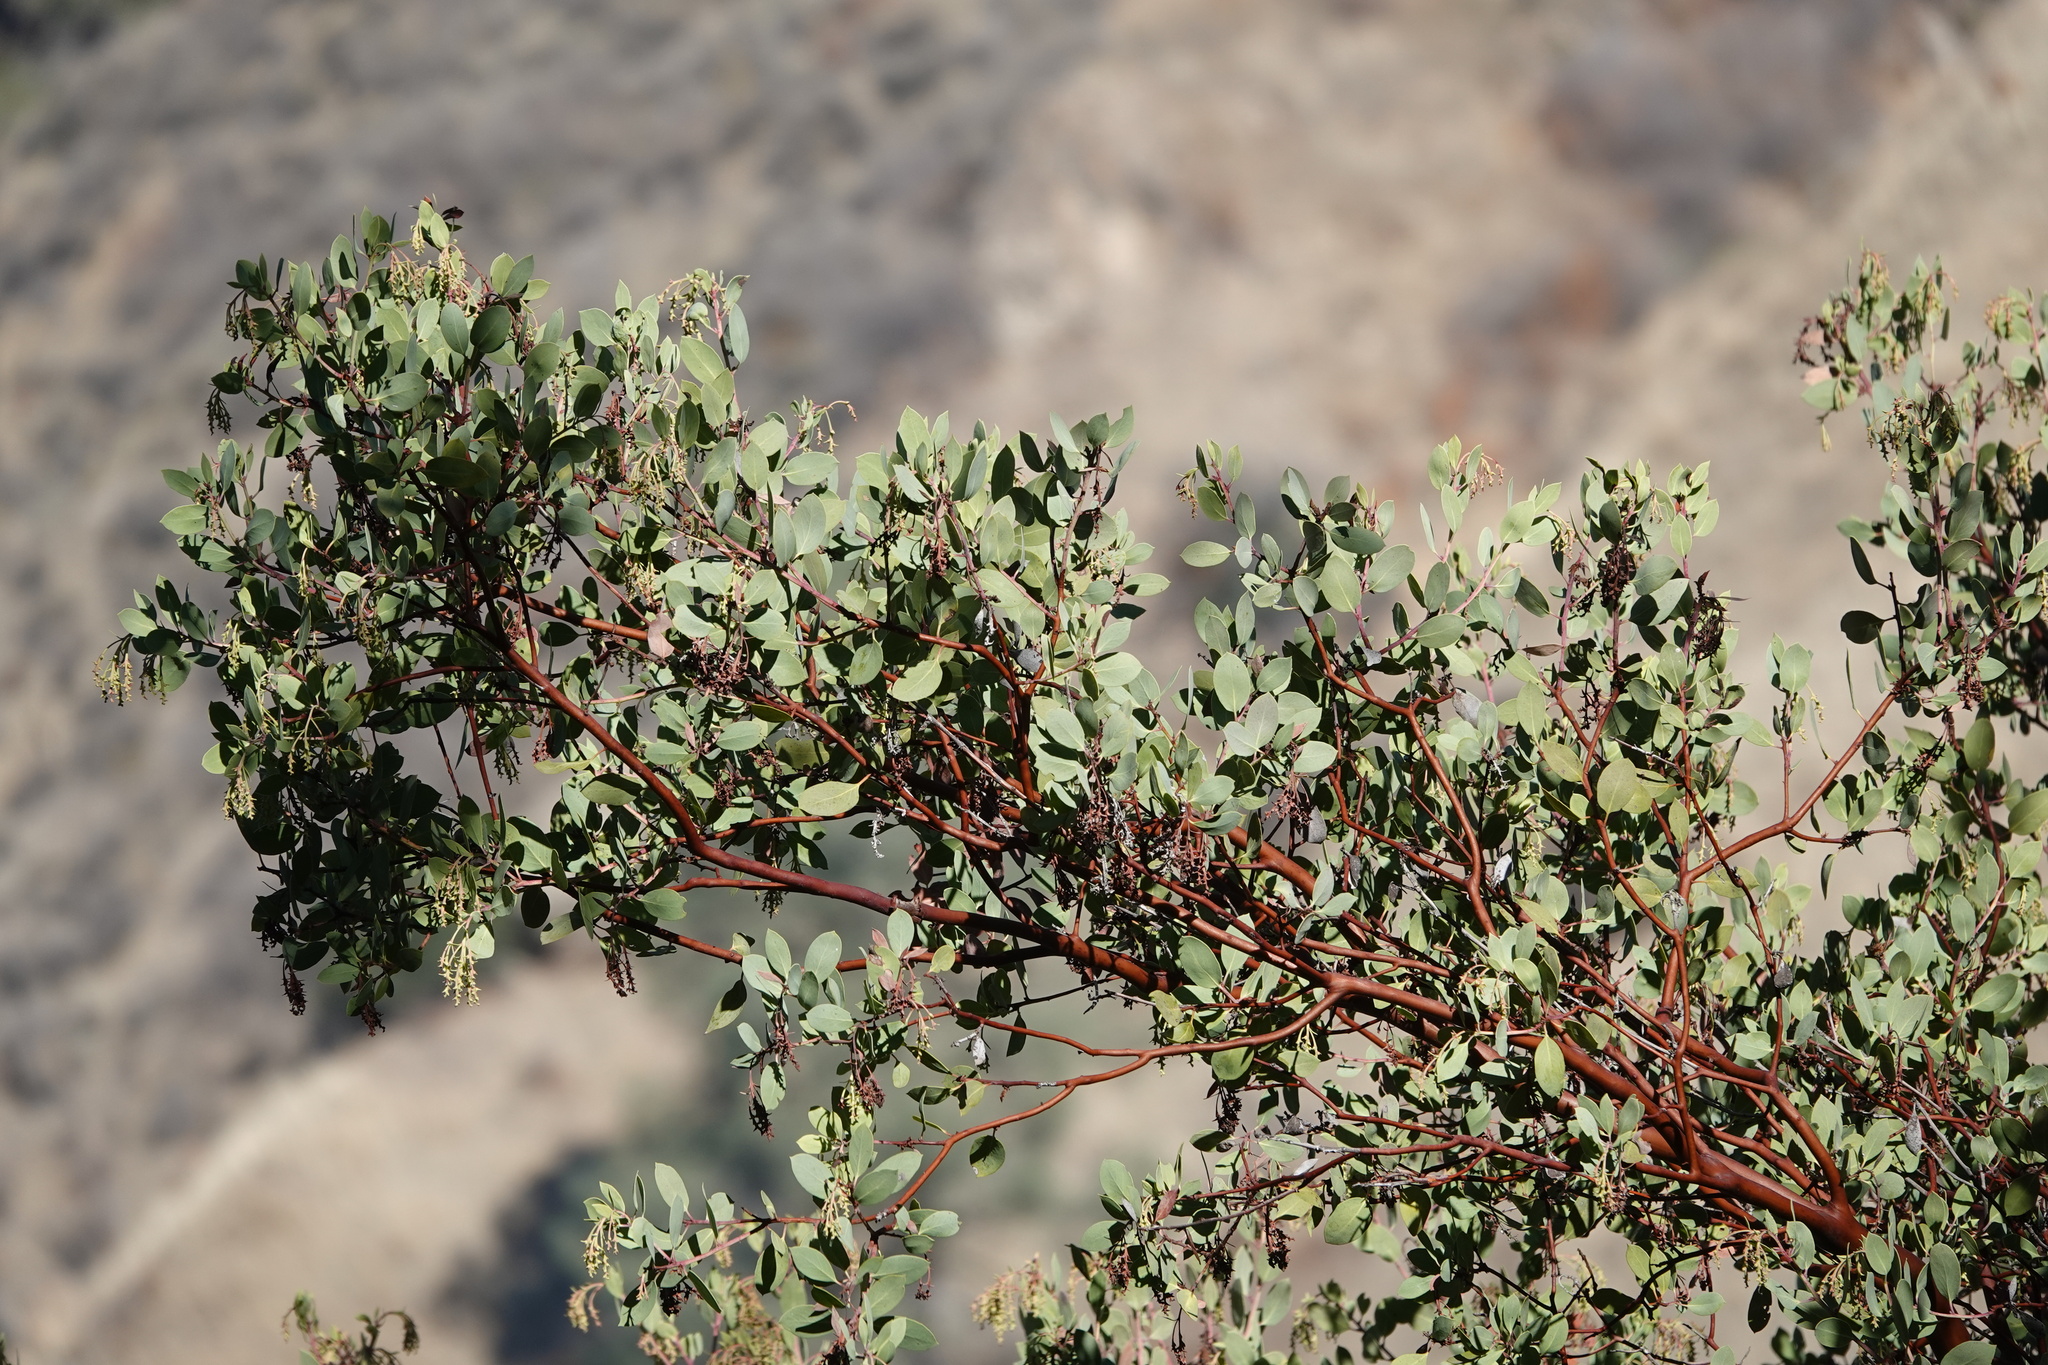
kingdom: Plantae
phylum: Tracheophyta
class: Magnoliopsida
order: Ericales
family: Ericaceae
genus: Arctostaphylos
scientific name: Arctostaphylos glauca
